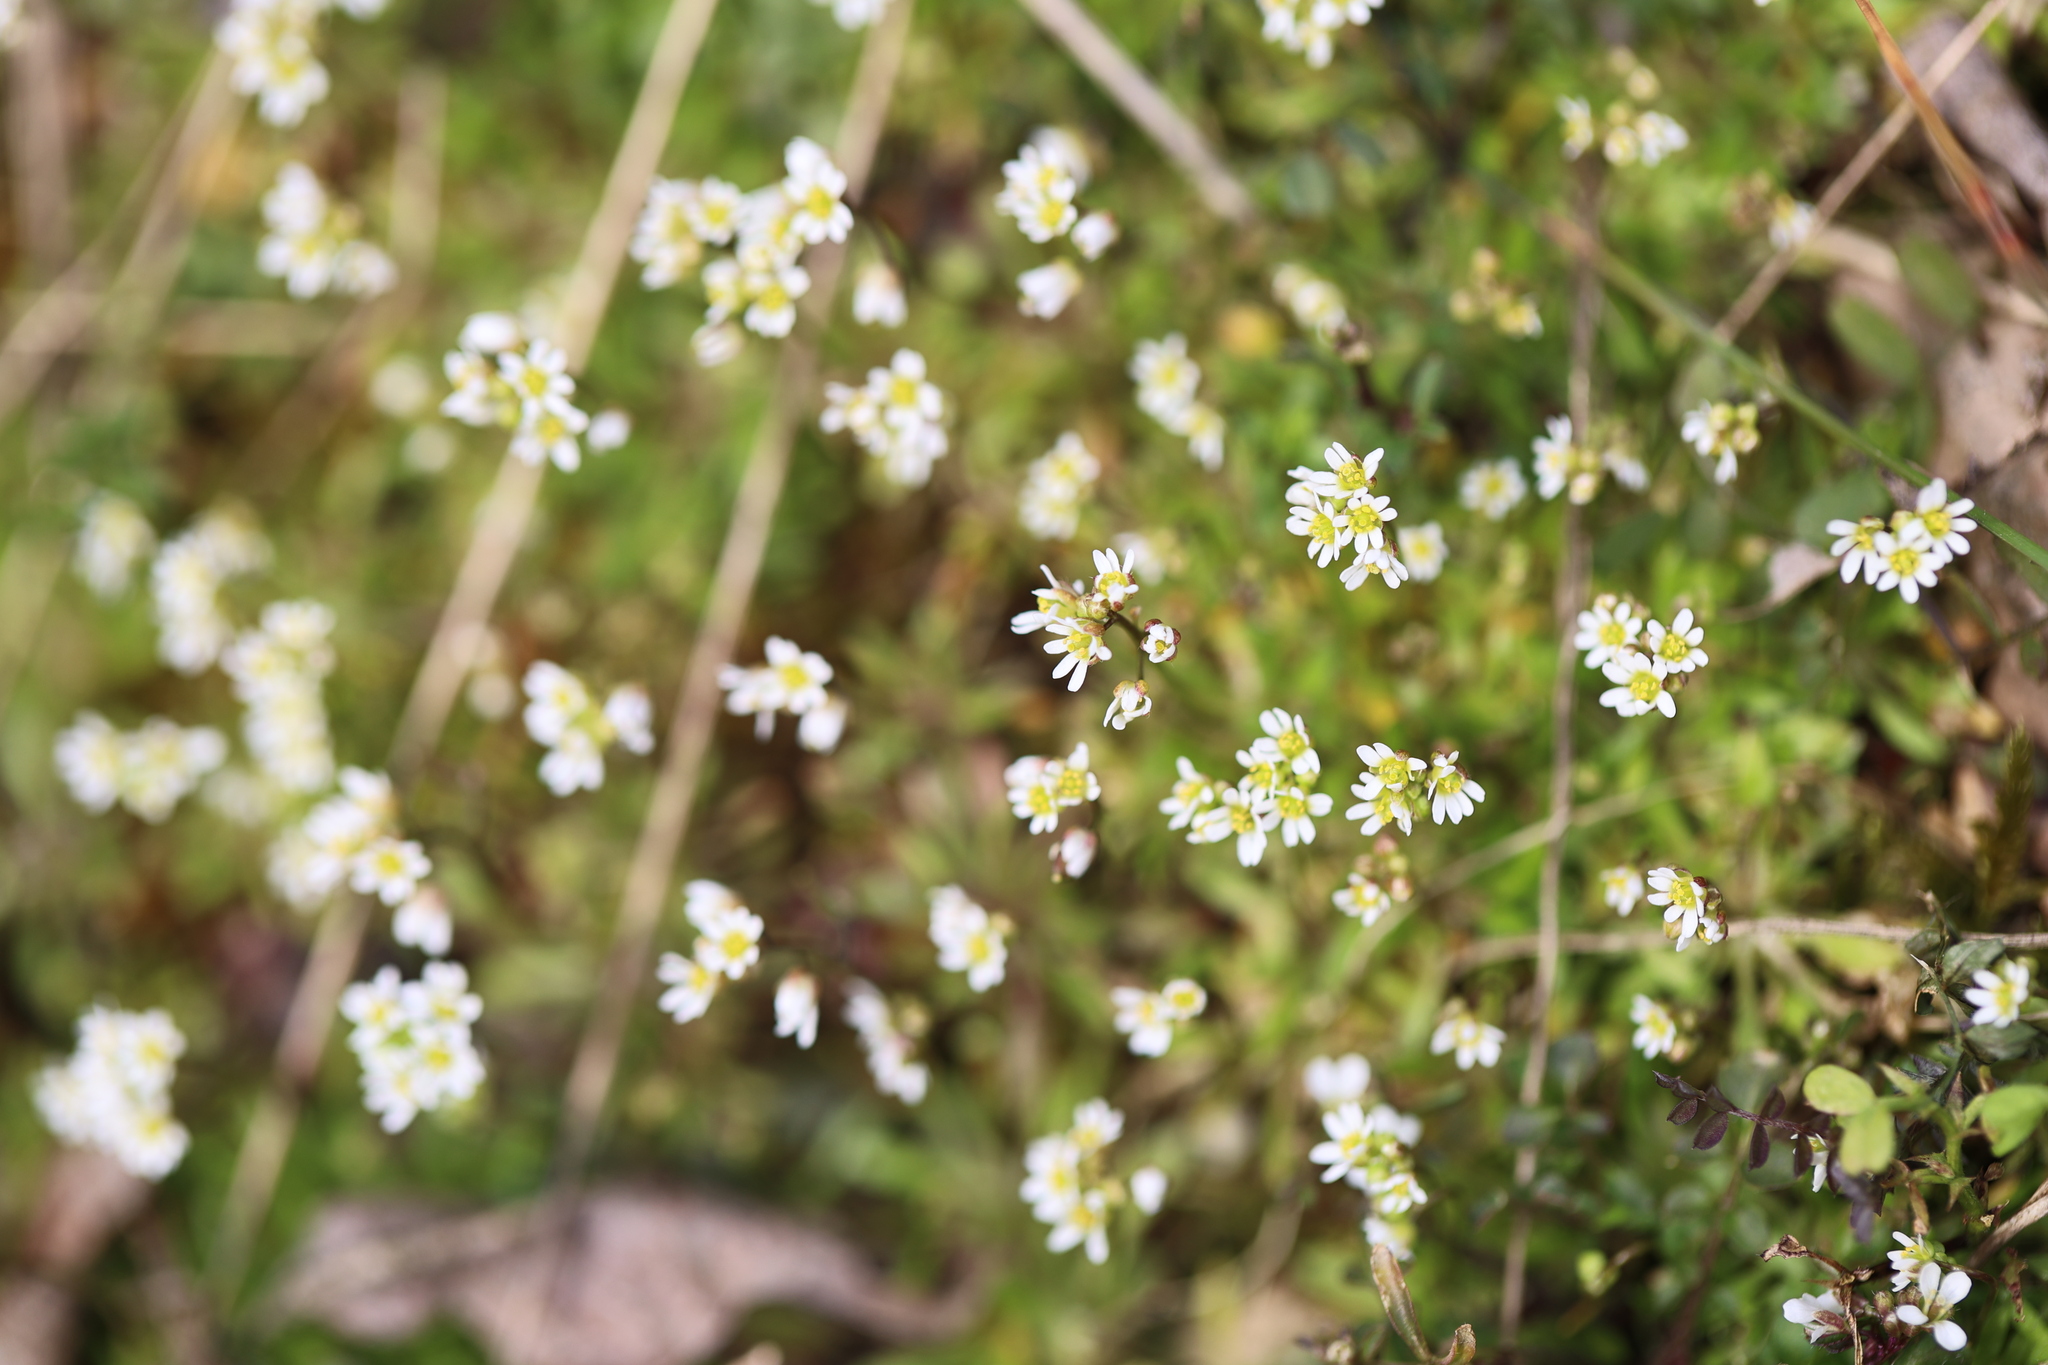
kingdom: Plantae
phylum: Tracheophyta
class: Magnoliopsida
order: Brassicales
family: Brassicaceae
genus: Draba
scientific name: Draba verna
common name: Spring draba
